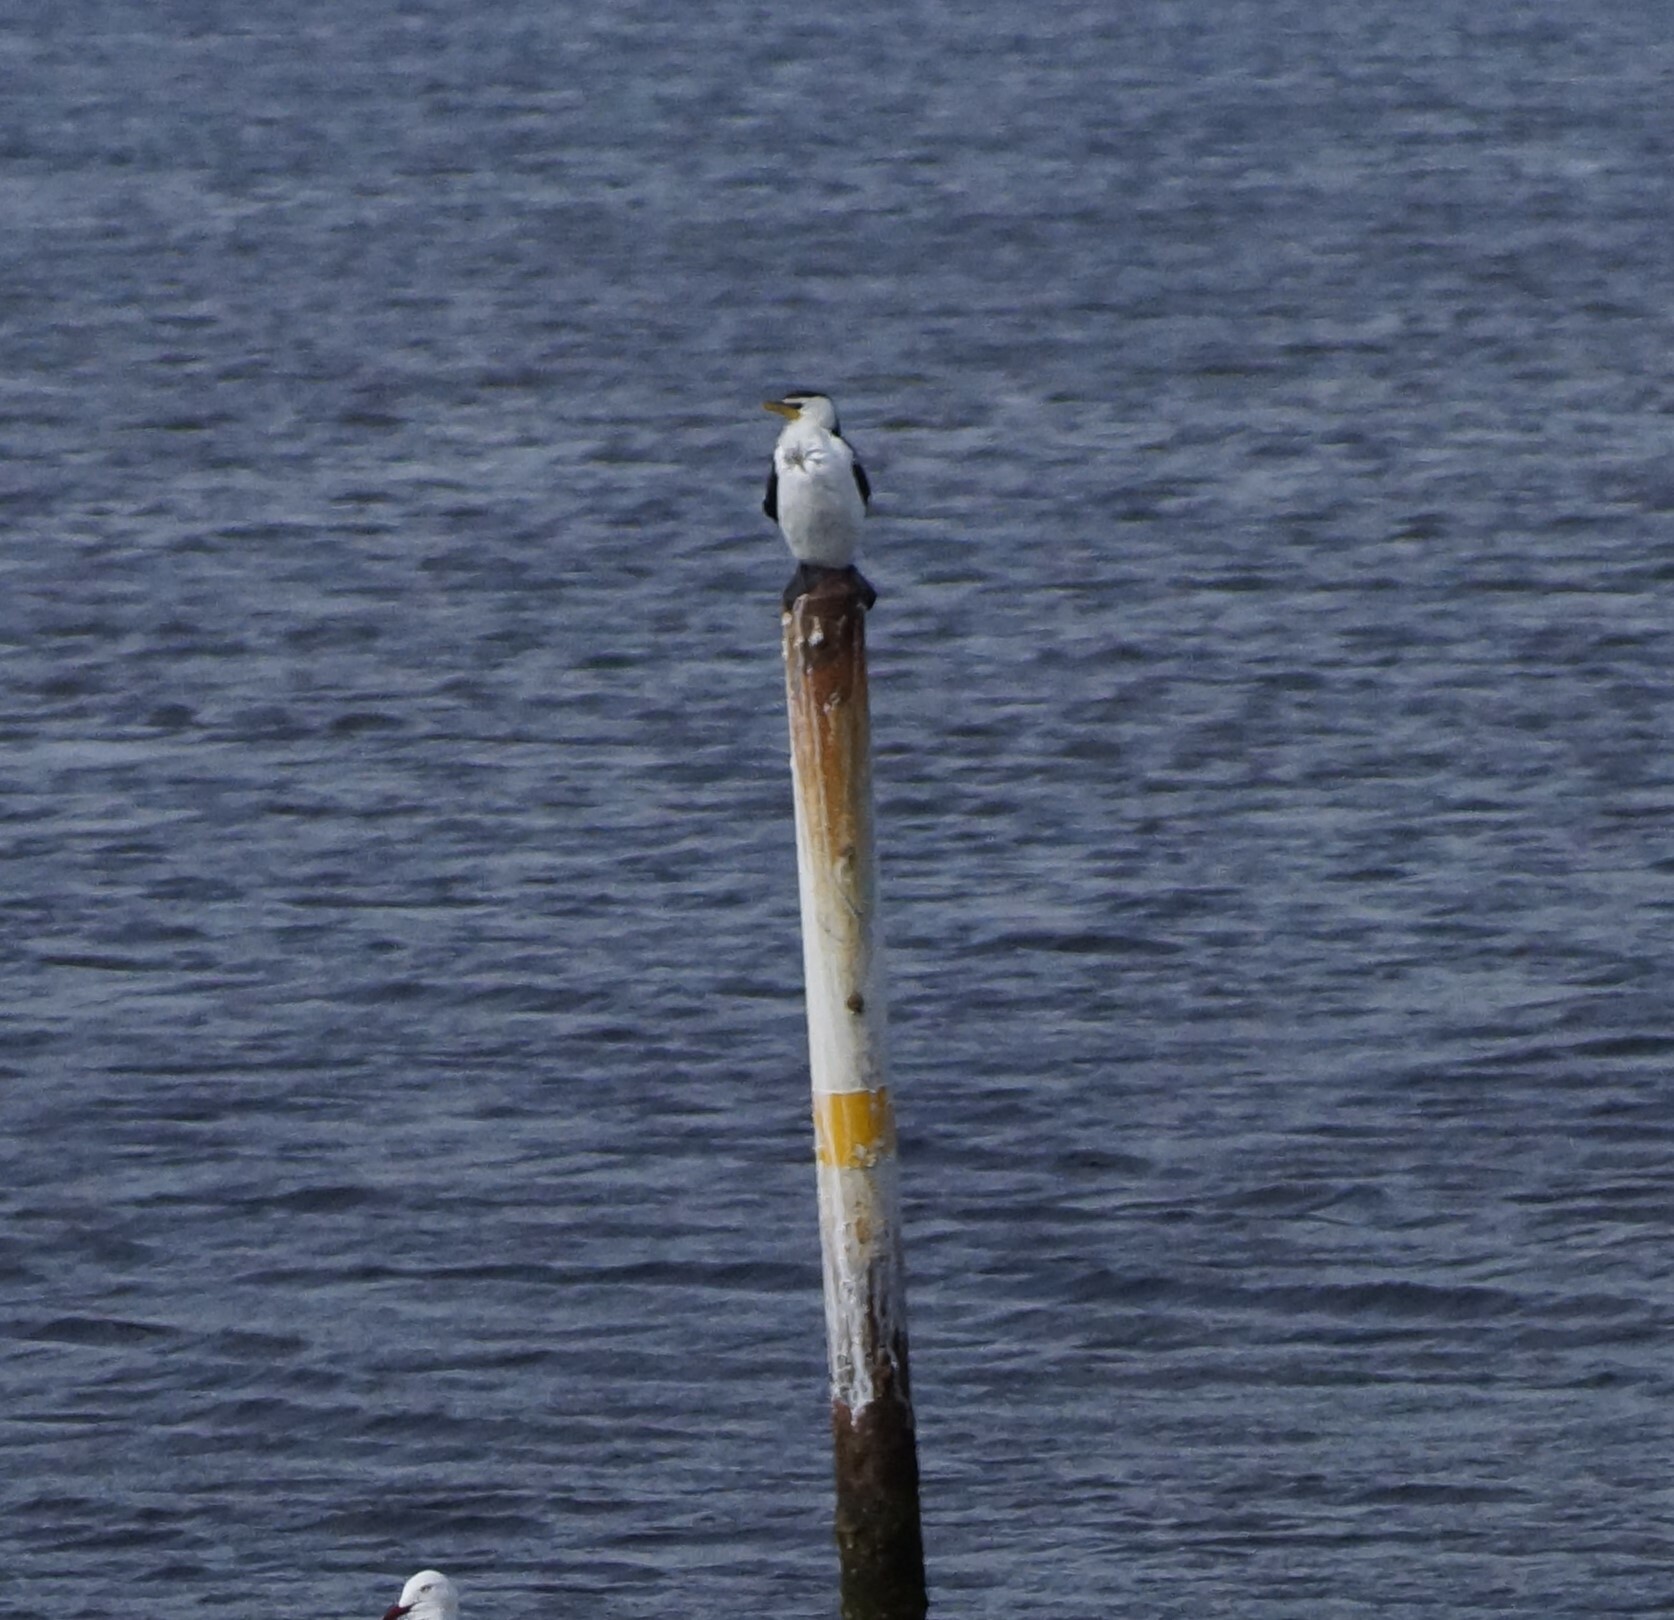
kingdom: Animalia
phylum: Chordata
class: Aves
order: Suliformes
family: Phalacrocoracidae
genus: Microcarbo
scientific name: Microcarbo melanoleucos
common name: Little pied cormorant
